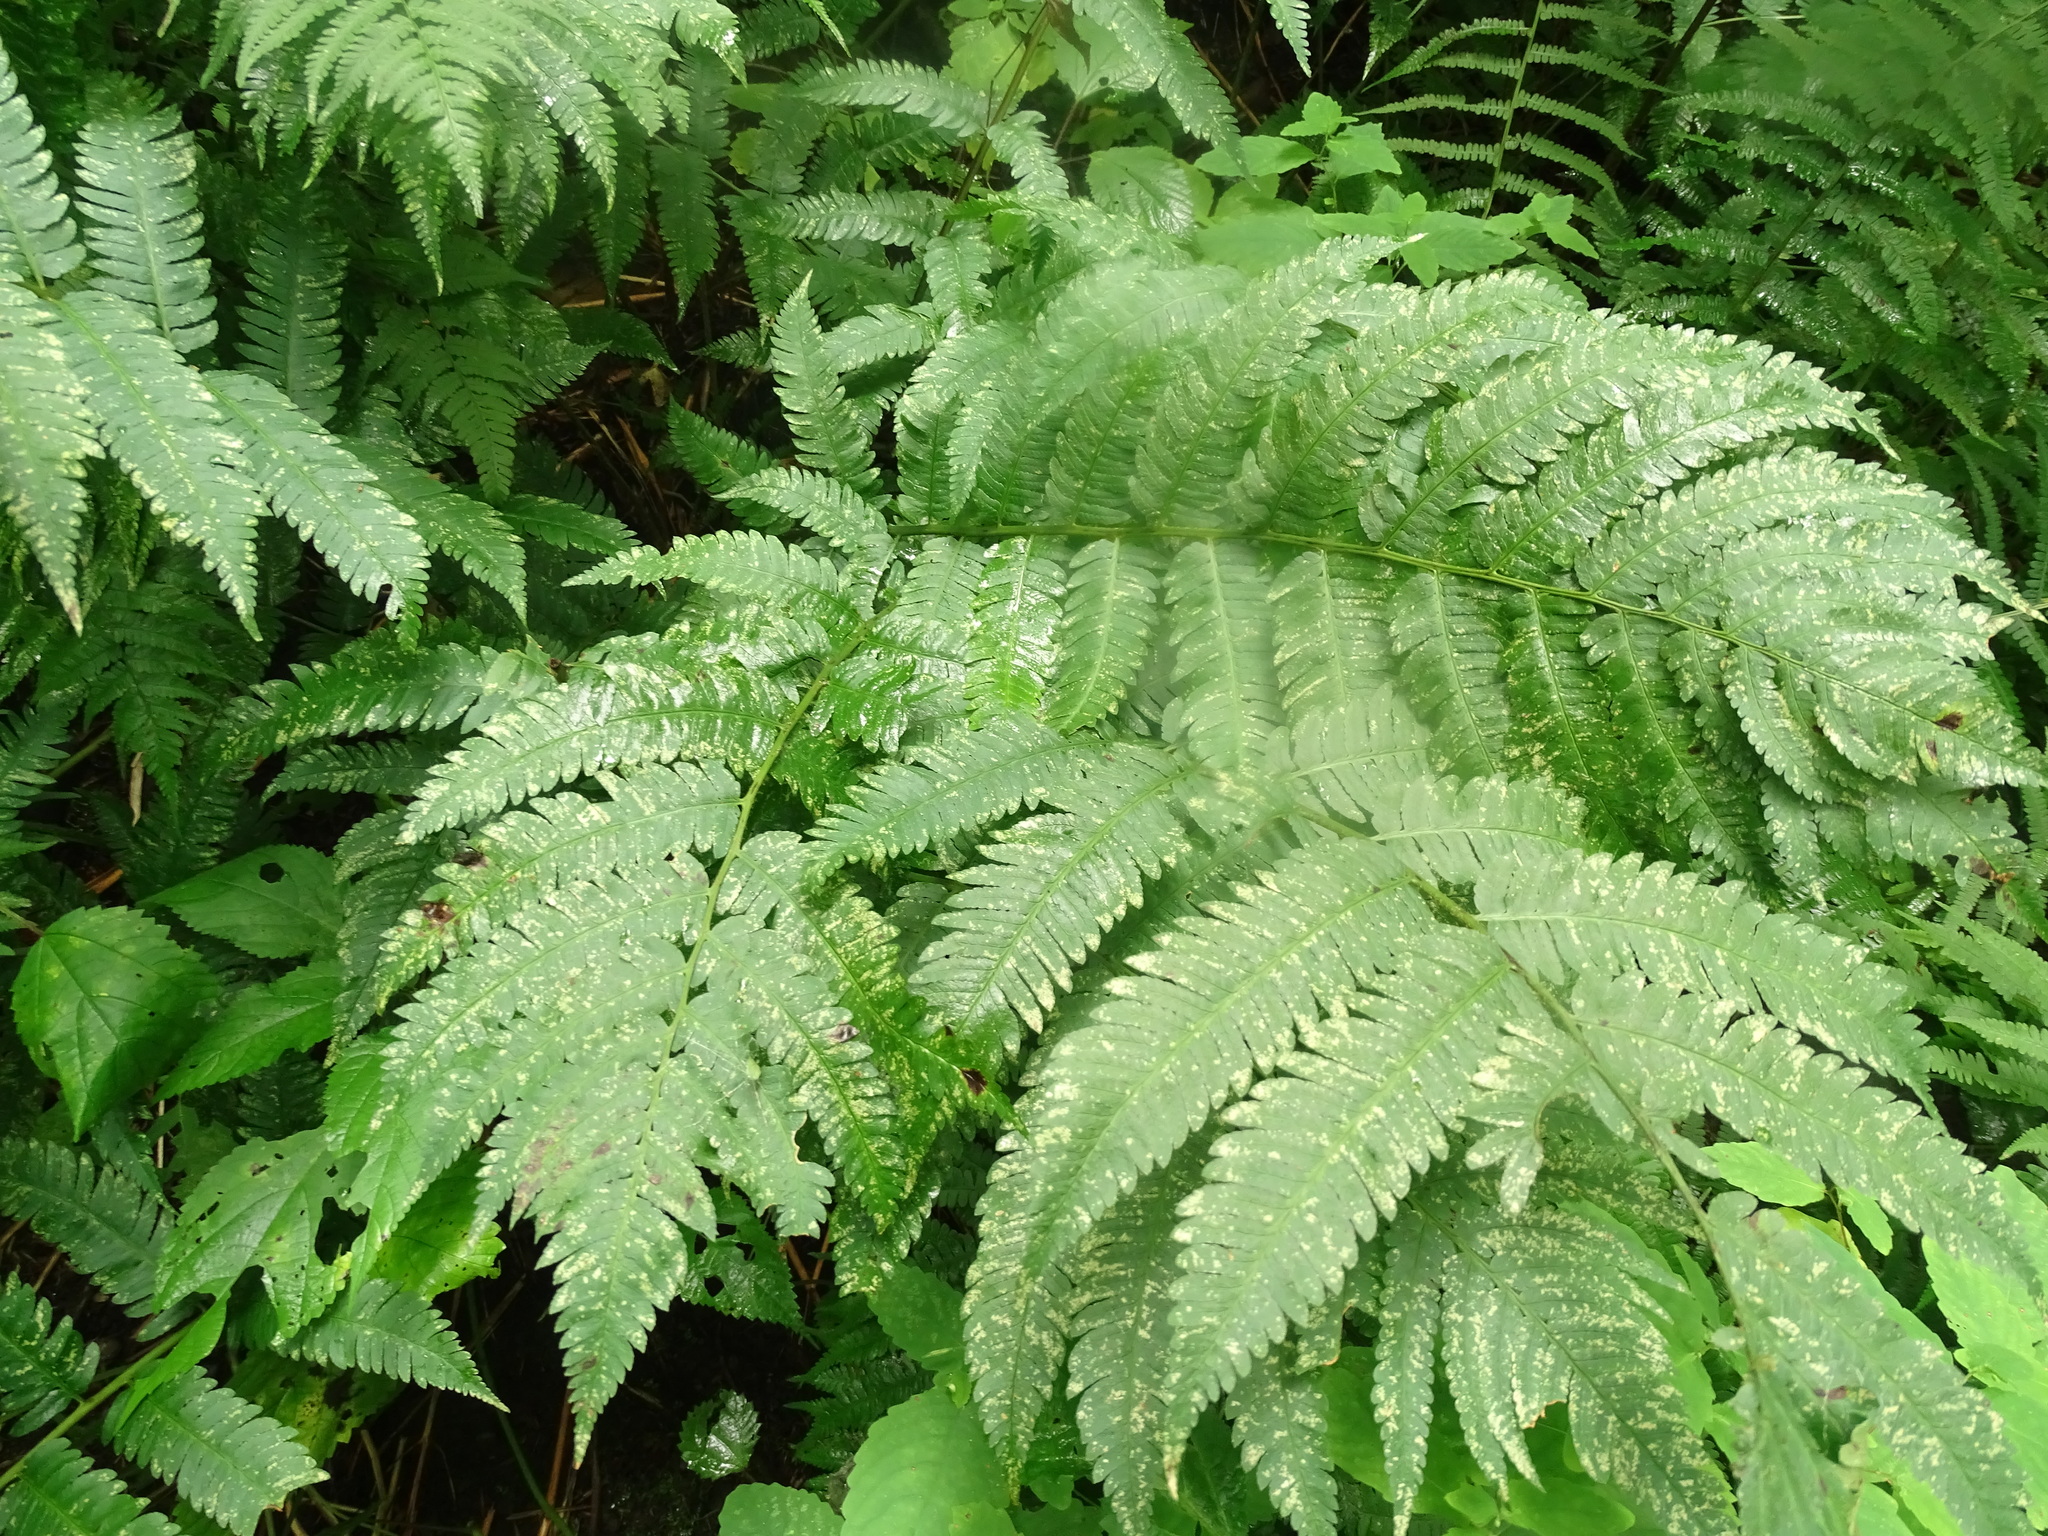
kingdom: Plantae
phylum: Tracheophyta
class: Polypodiopsida
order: Polypodiales
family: Dryopteridaceae
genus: Dryopteris
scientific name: Dryopteris goldieana
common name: Goldie's fern
